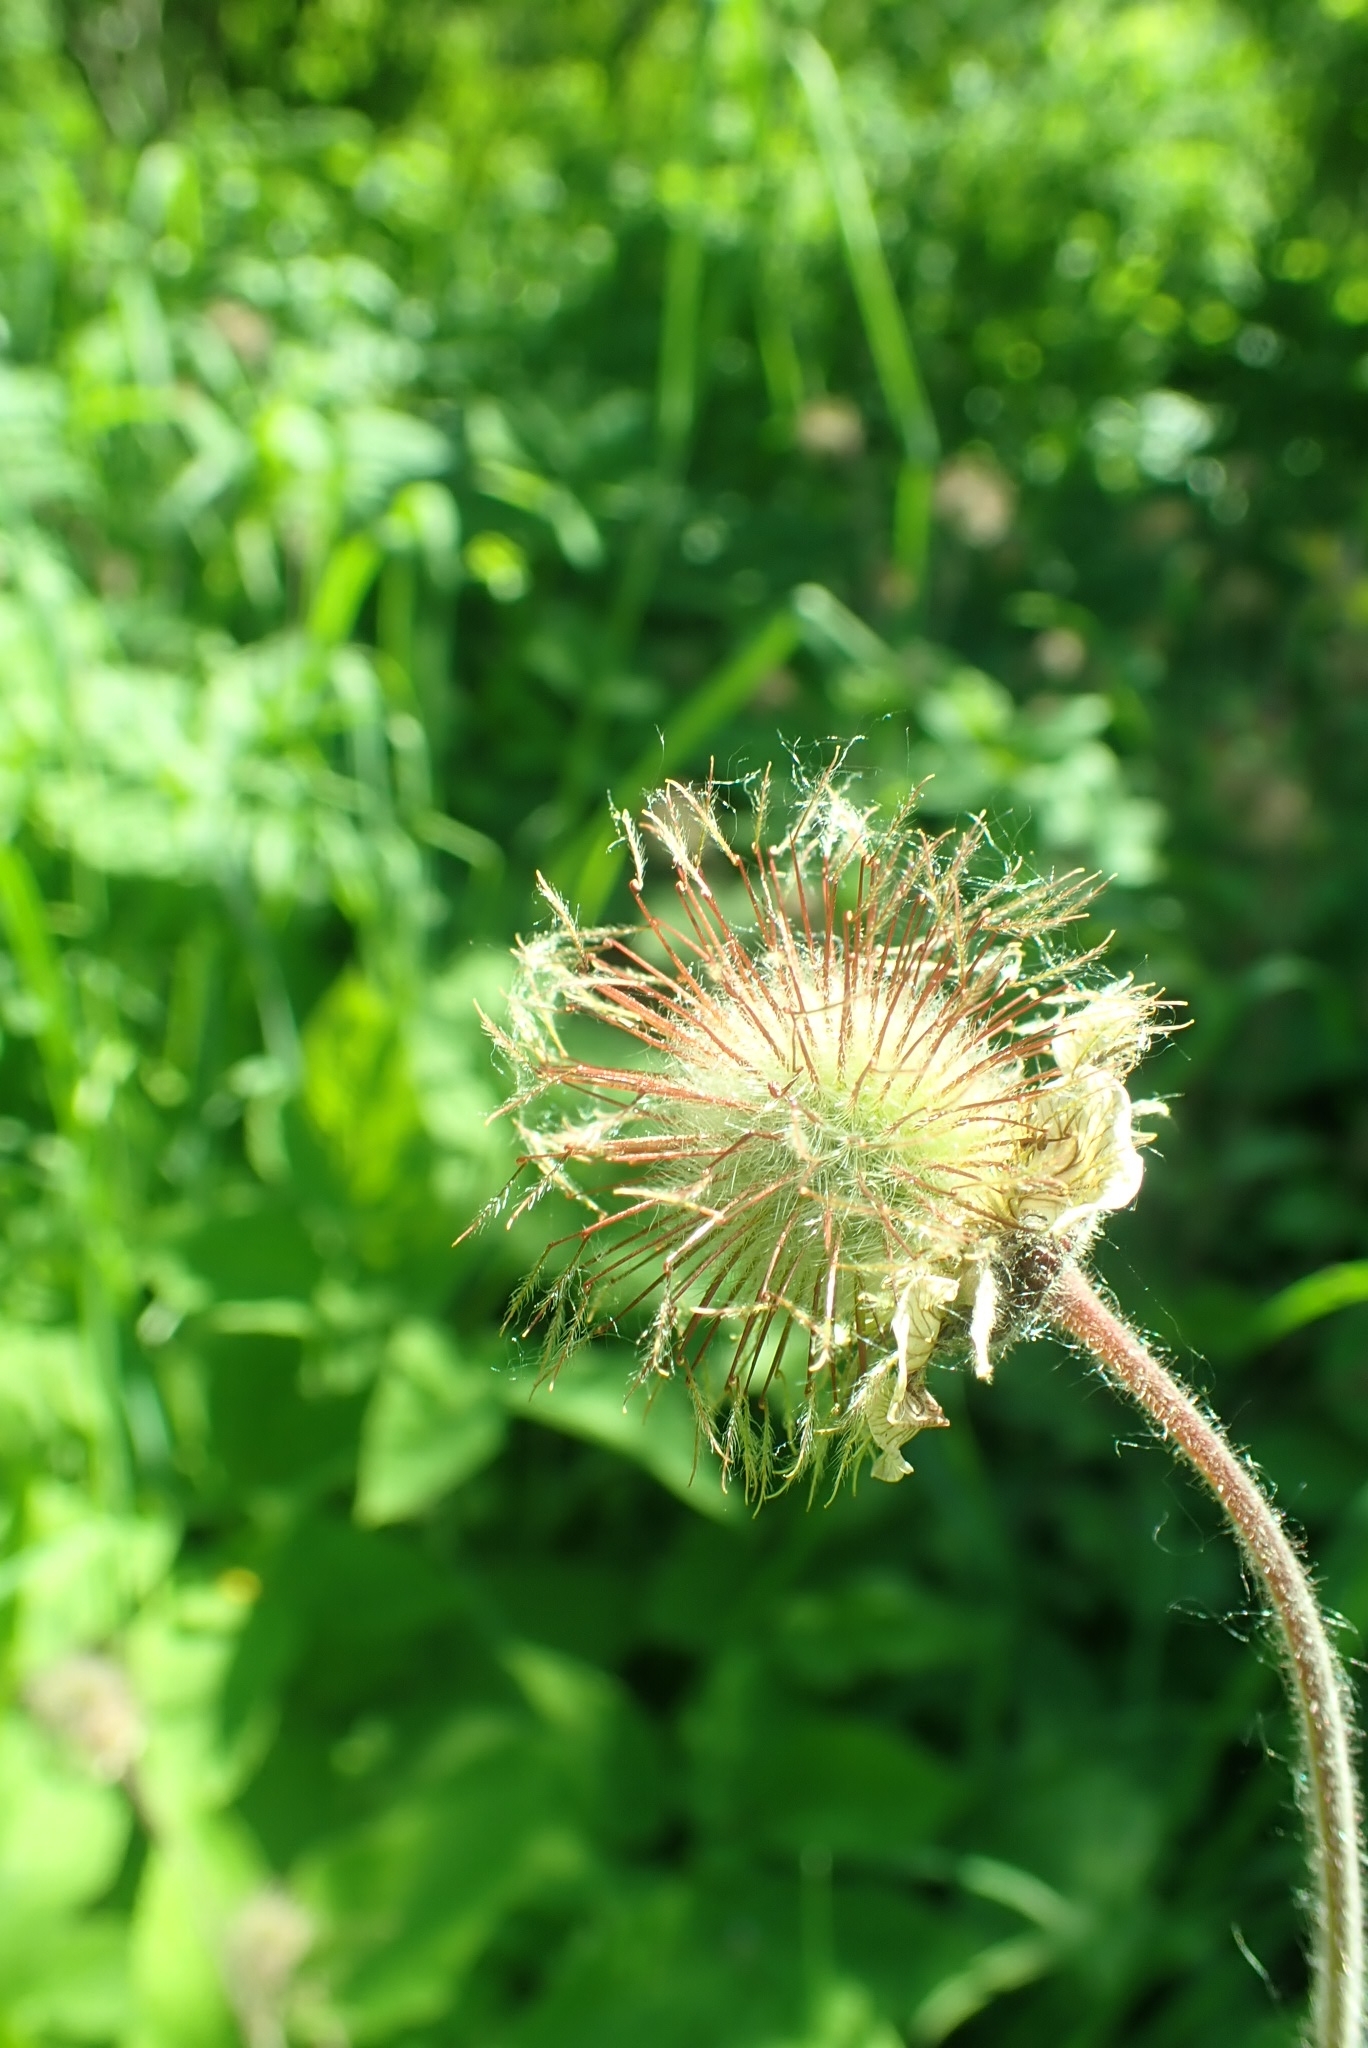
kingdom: Plantae
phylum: Tracheophyta
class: Magnoliopsida
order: Rosales
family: Rosaceae
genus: Geum
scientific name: Geum rivale
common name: Water avens
